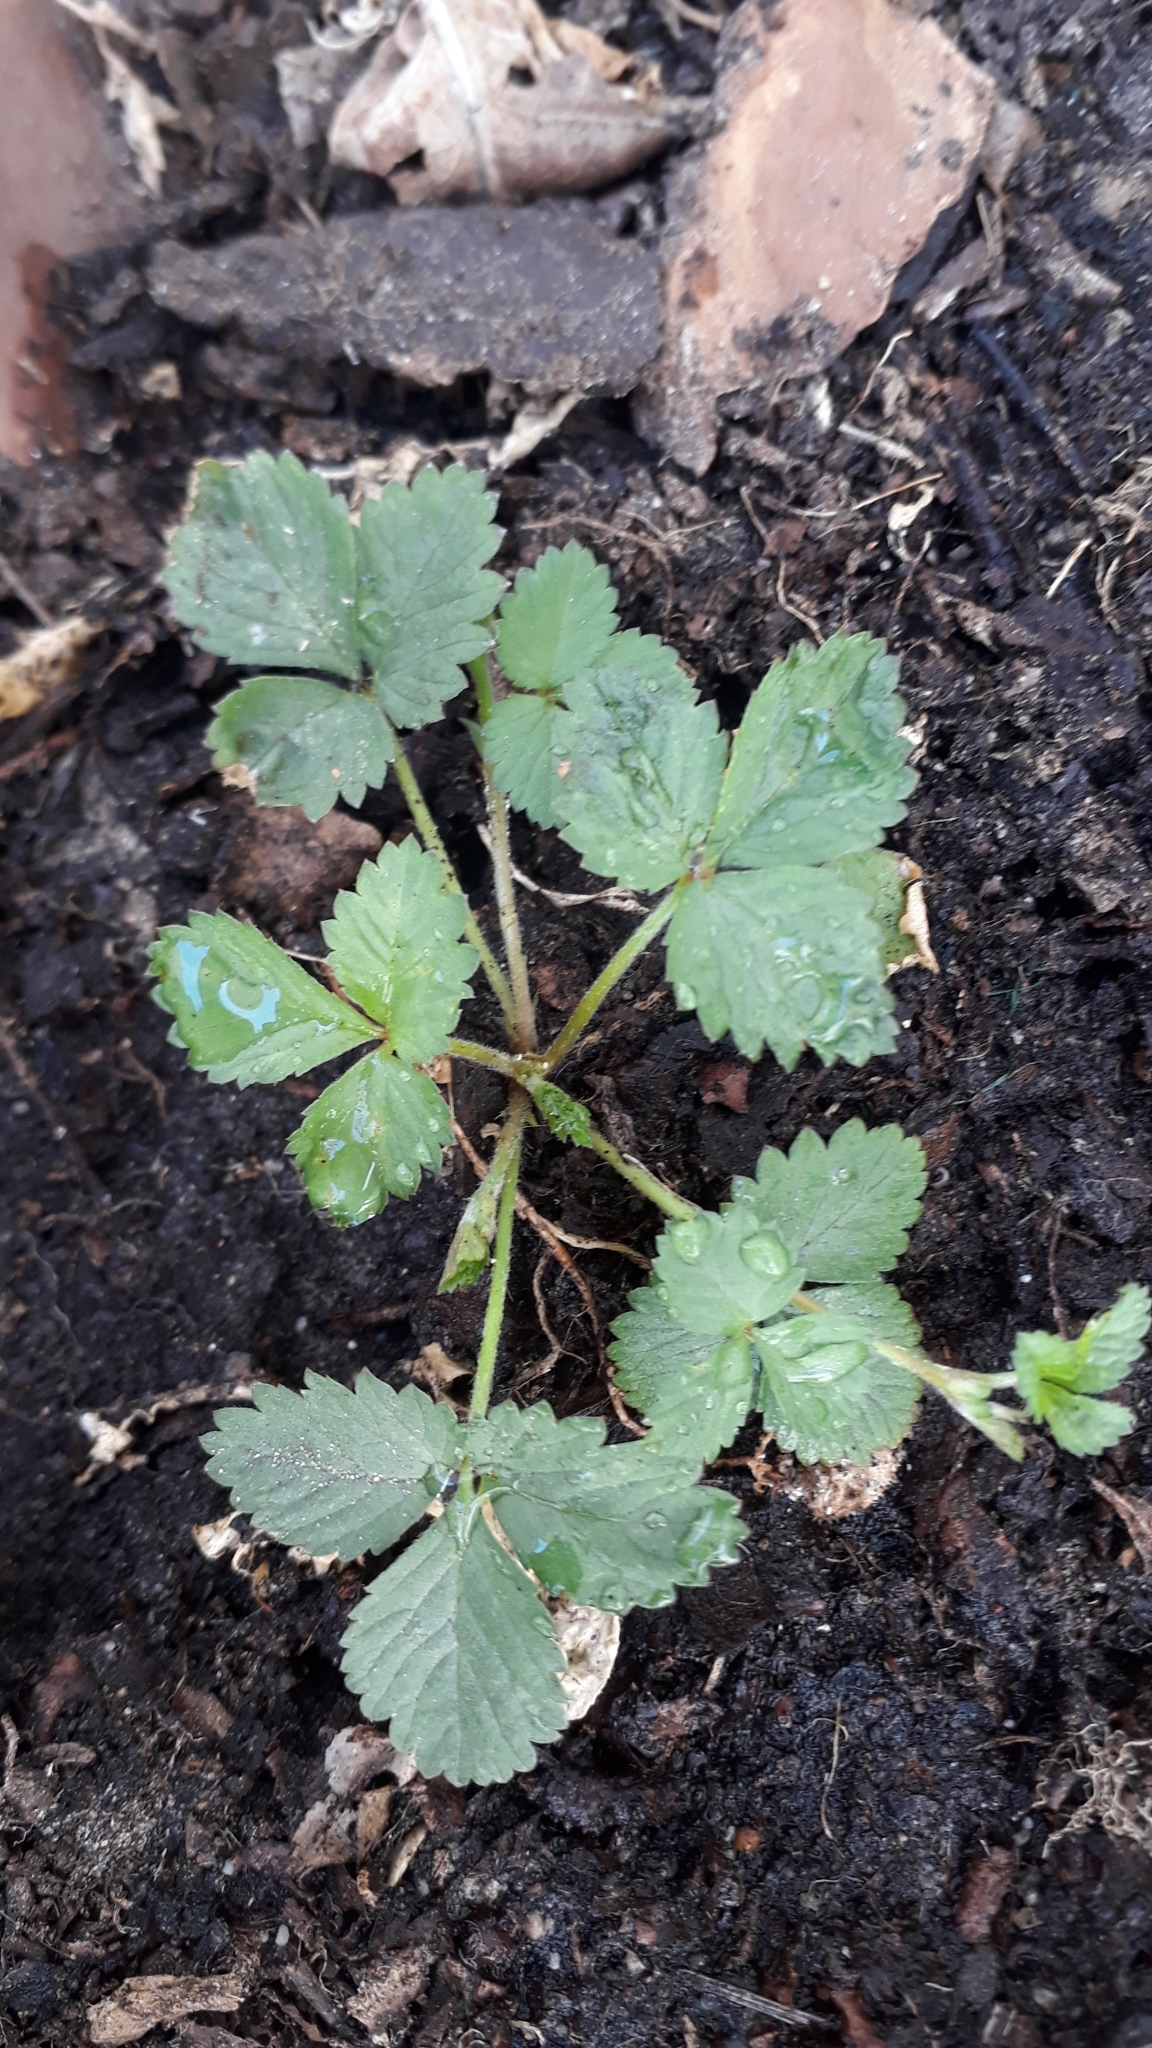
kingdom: Plantae
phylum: Tracheophyta
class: Magnoliopsida
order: Rosales
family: Rosaceae
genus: Potentilla
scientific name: Potentilla indica
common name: Yellow-flowered strawberry
